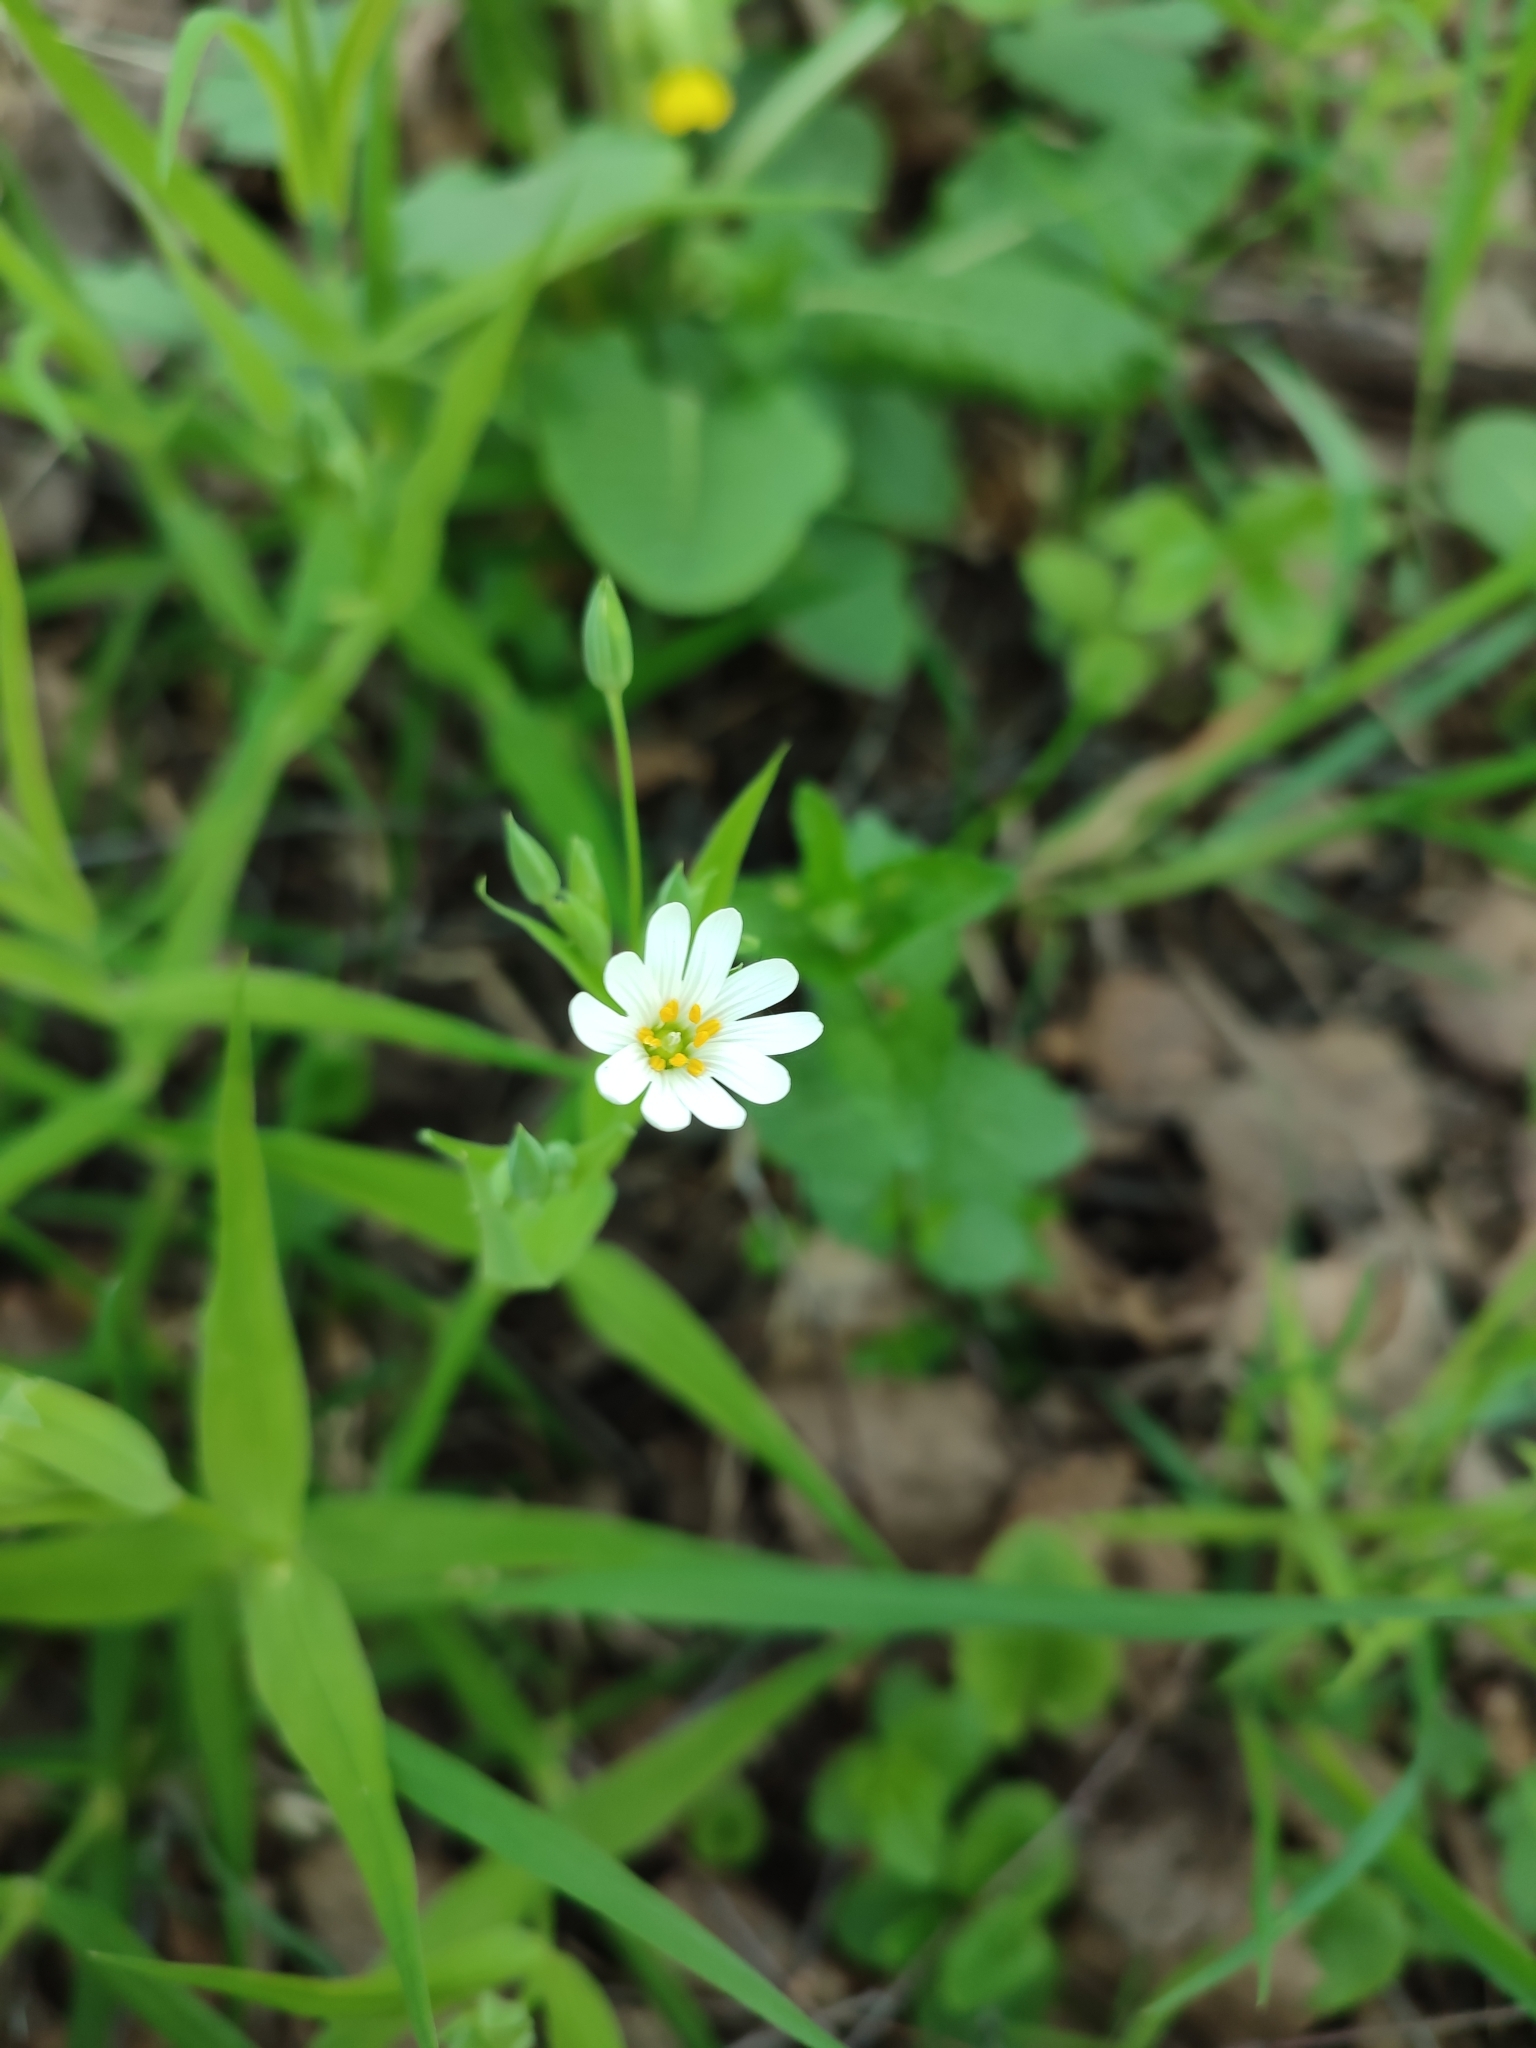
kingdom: Plantae
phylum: Tracheophyta
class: Magnoliopsida
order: Caryophyllales
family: Caryophyllaceae
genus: Rabelera
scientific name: Rabelera holostea
